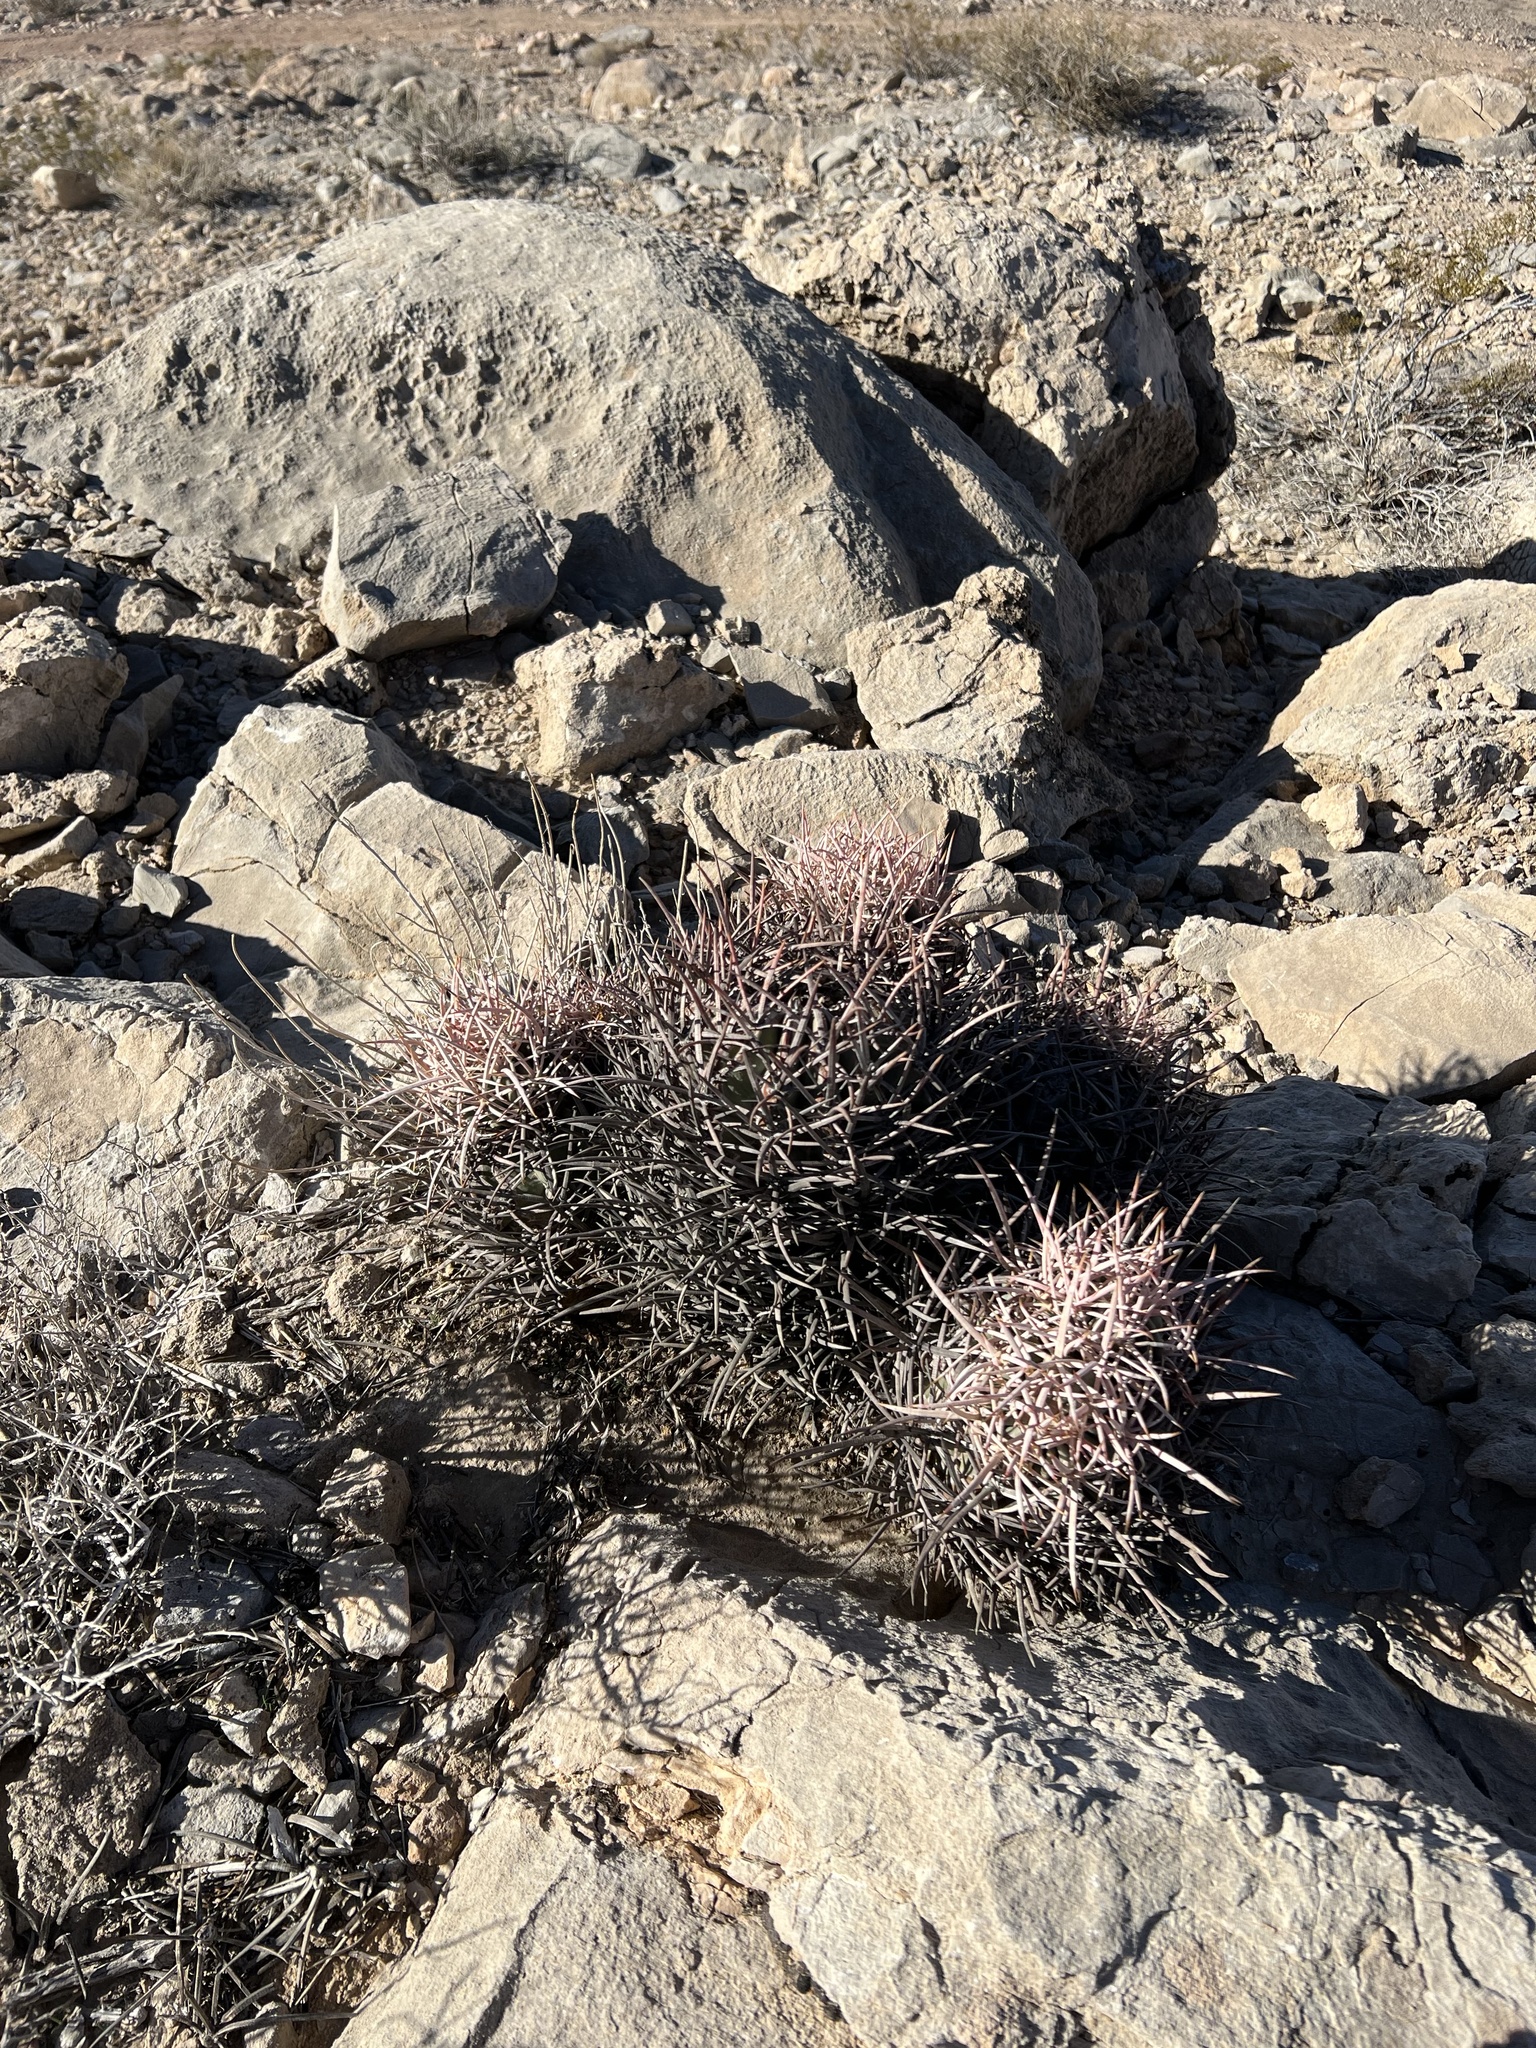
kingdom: Plantae
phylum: Tracheophyta
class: Magnoliopsida
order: Caryophyllales
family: Cactaceae
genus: Echinocactus
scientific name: Echinocactus polycephalus
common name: Cottontop cactus
